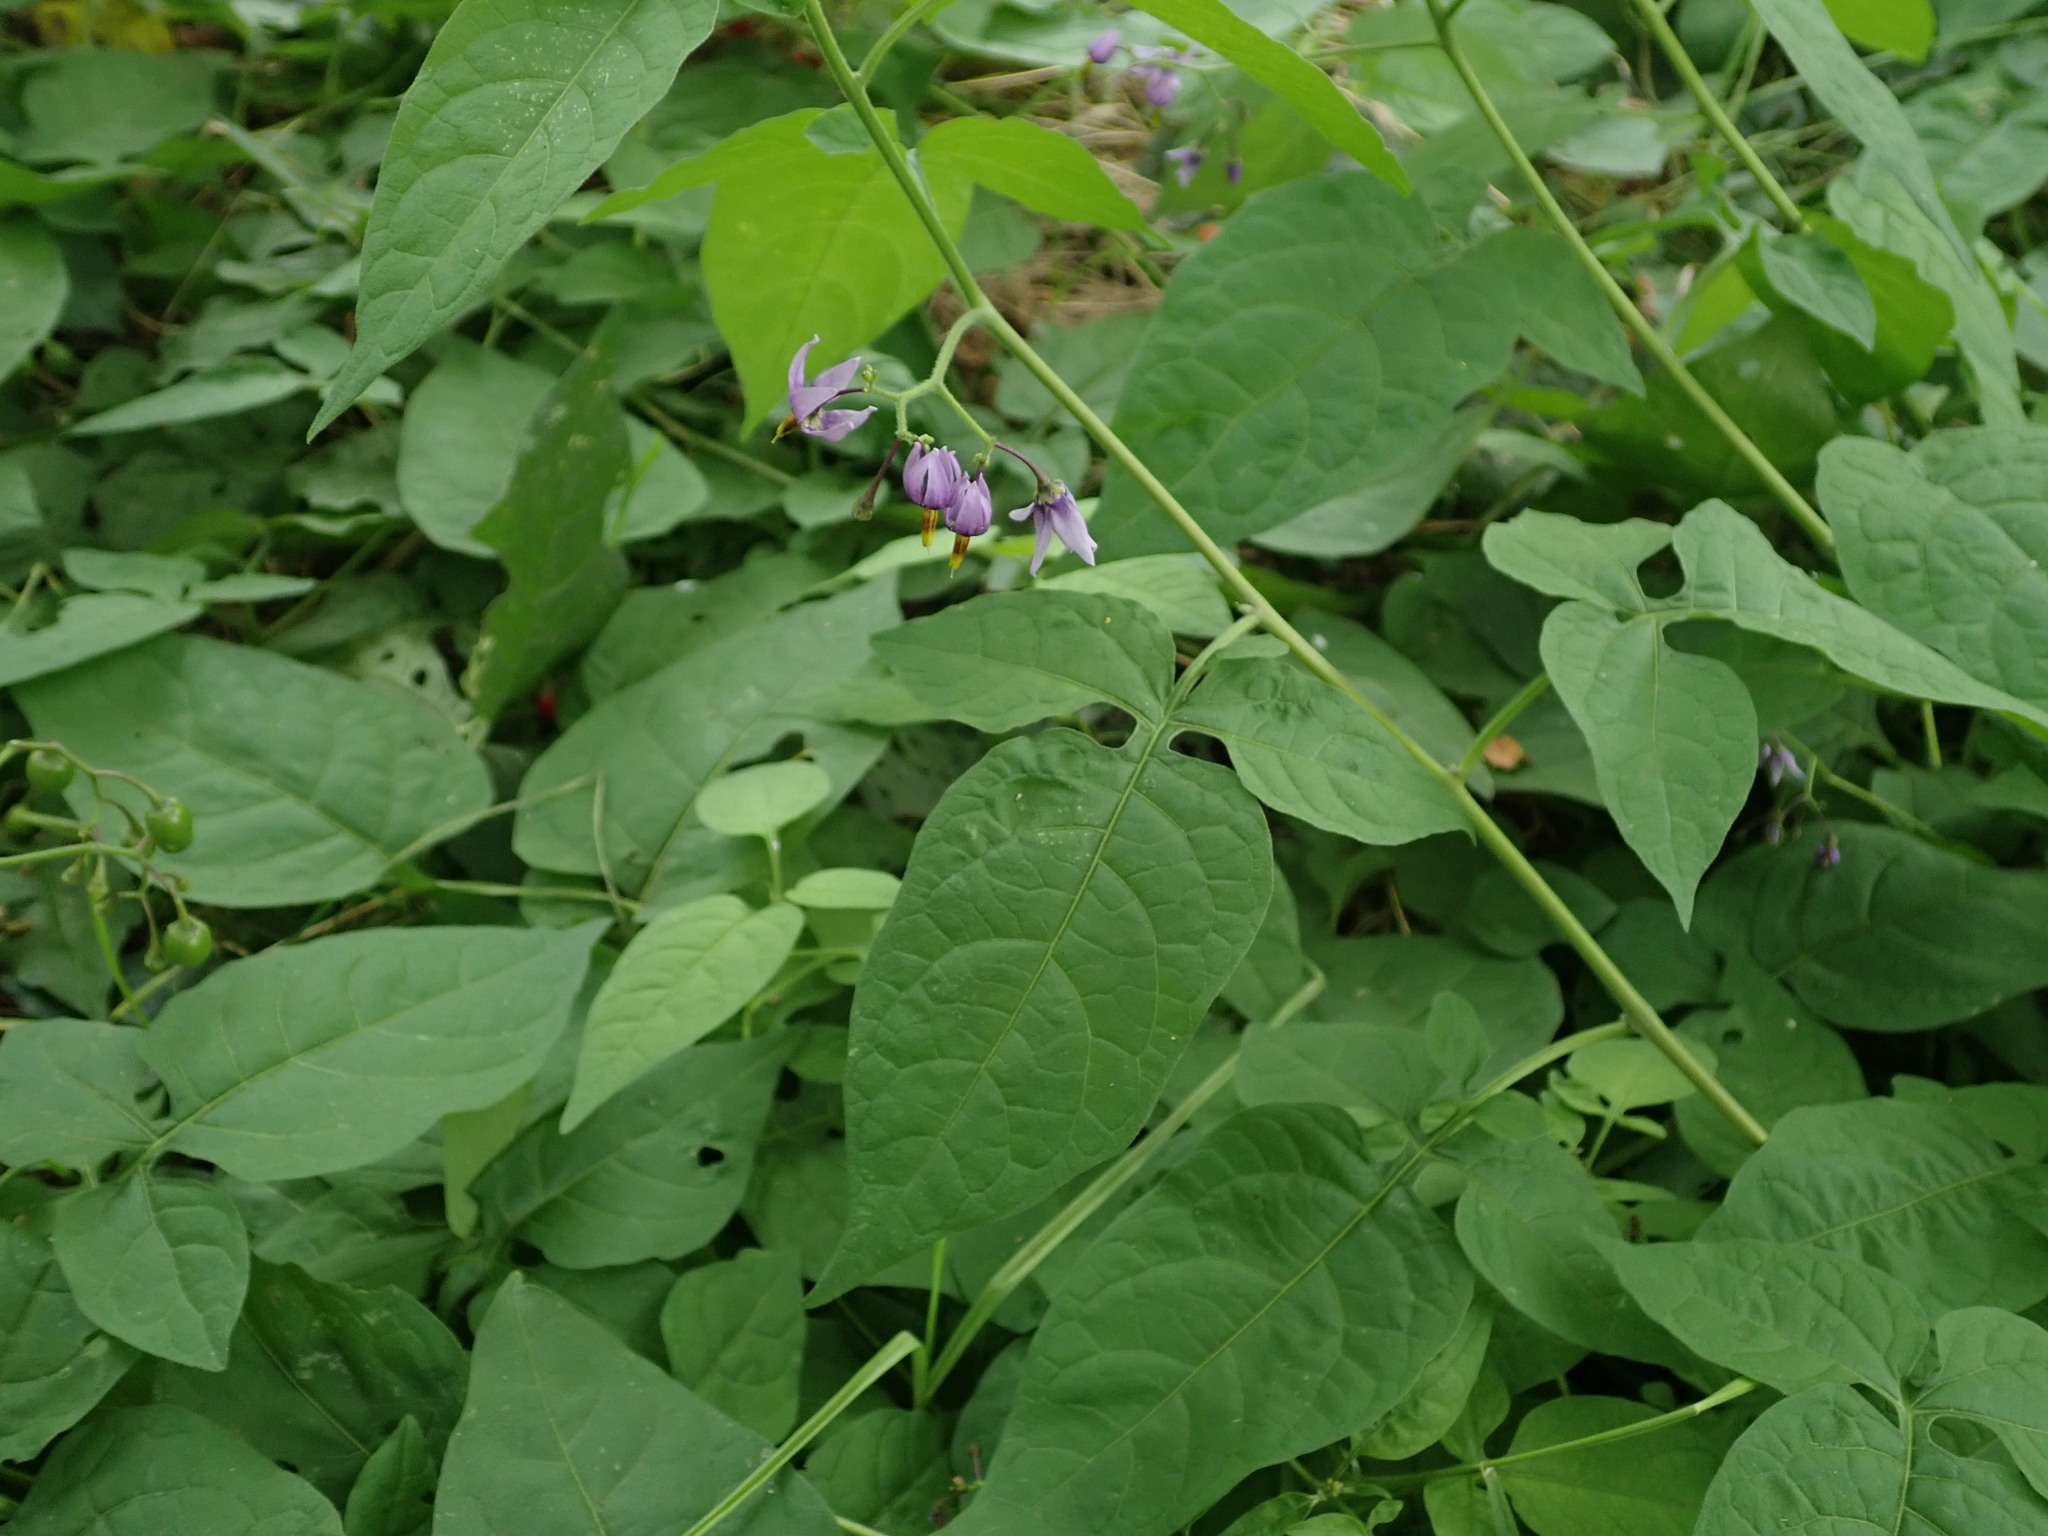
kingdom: Plantae
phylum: Tracheophyta
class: Magnoliopsida
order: Solanales
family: Solanaceae
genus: Solanum
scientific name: Solanum dulcamara
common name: Climbing nightshade
